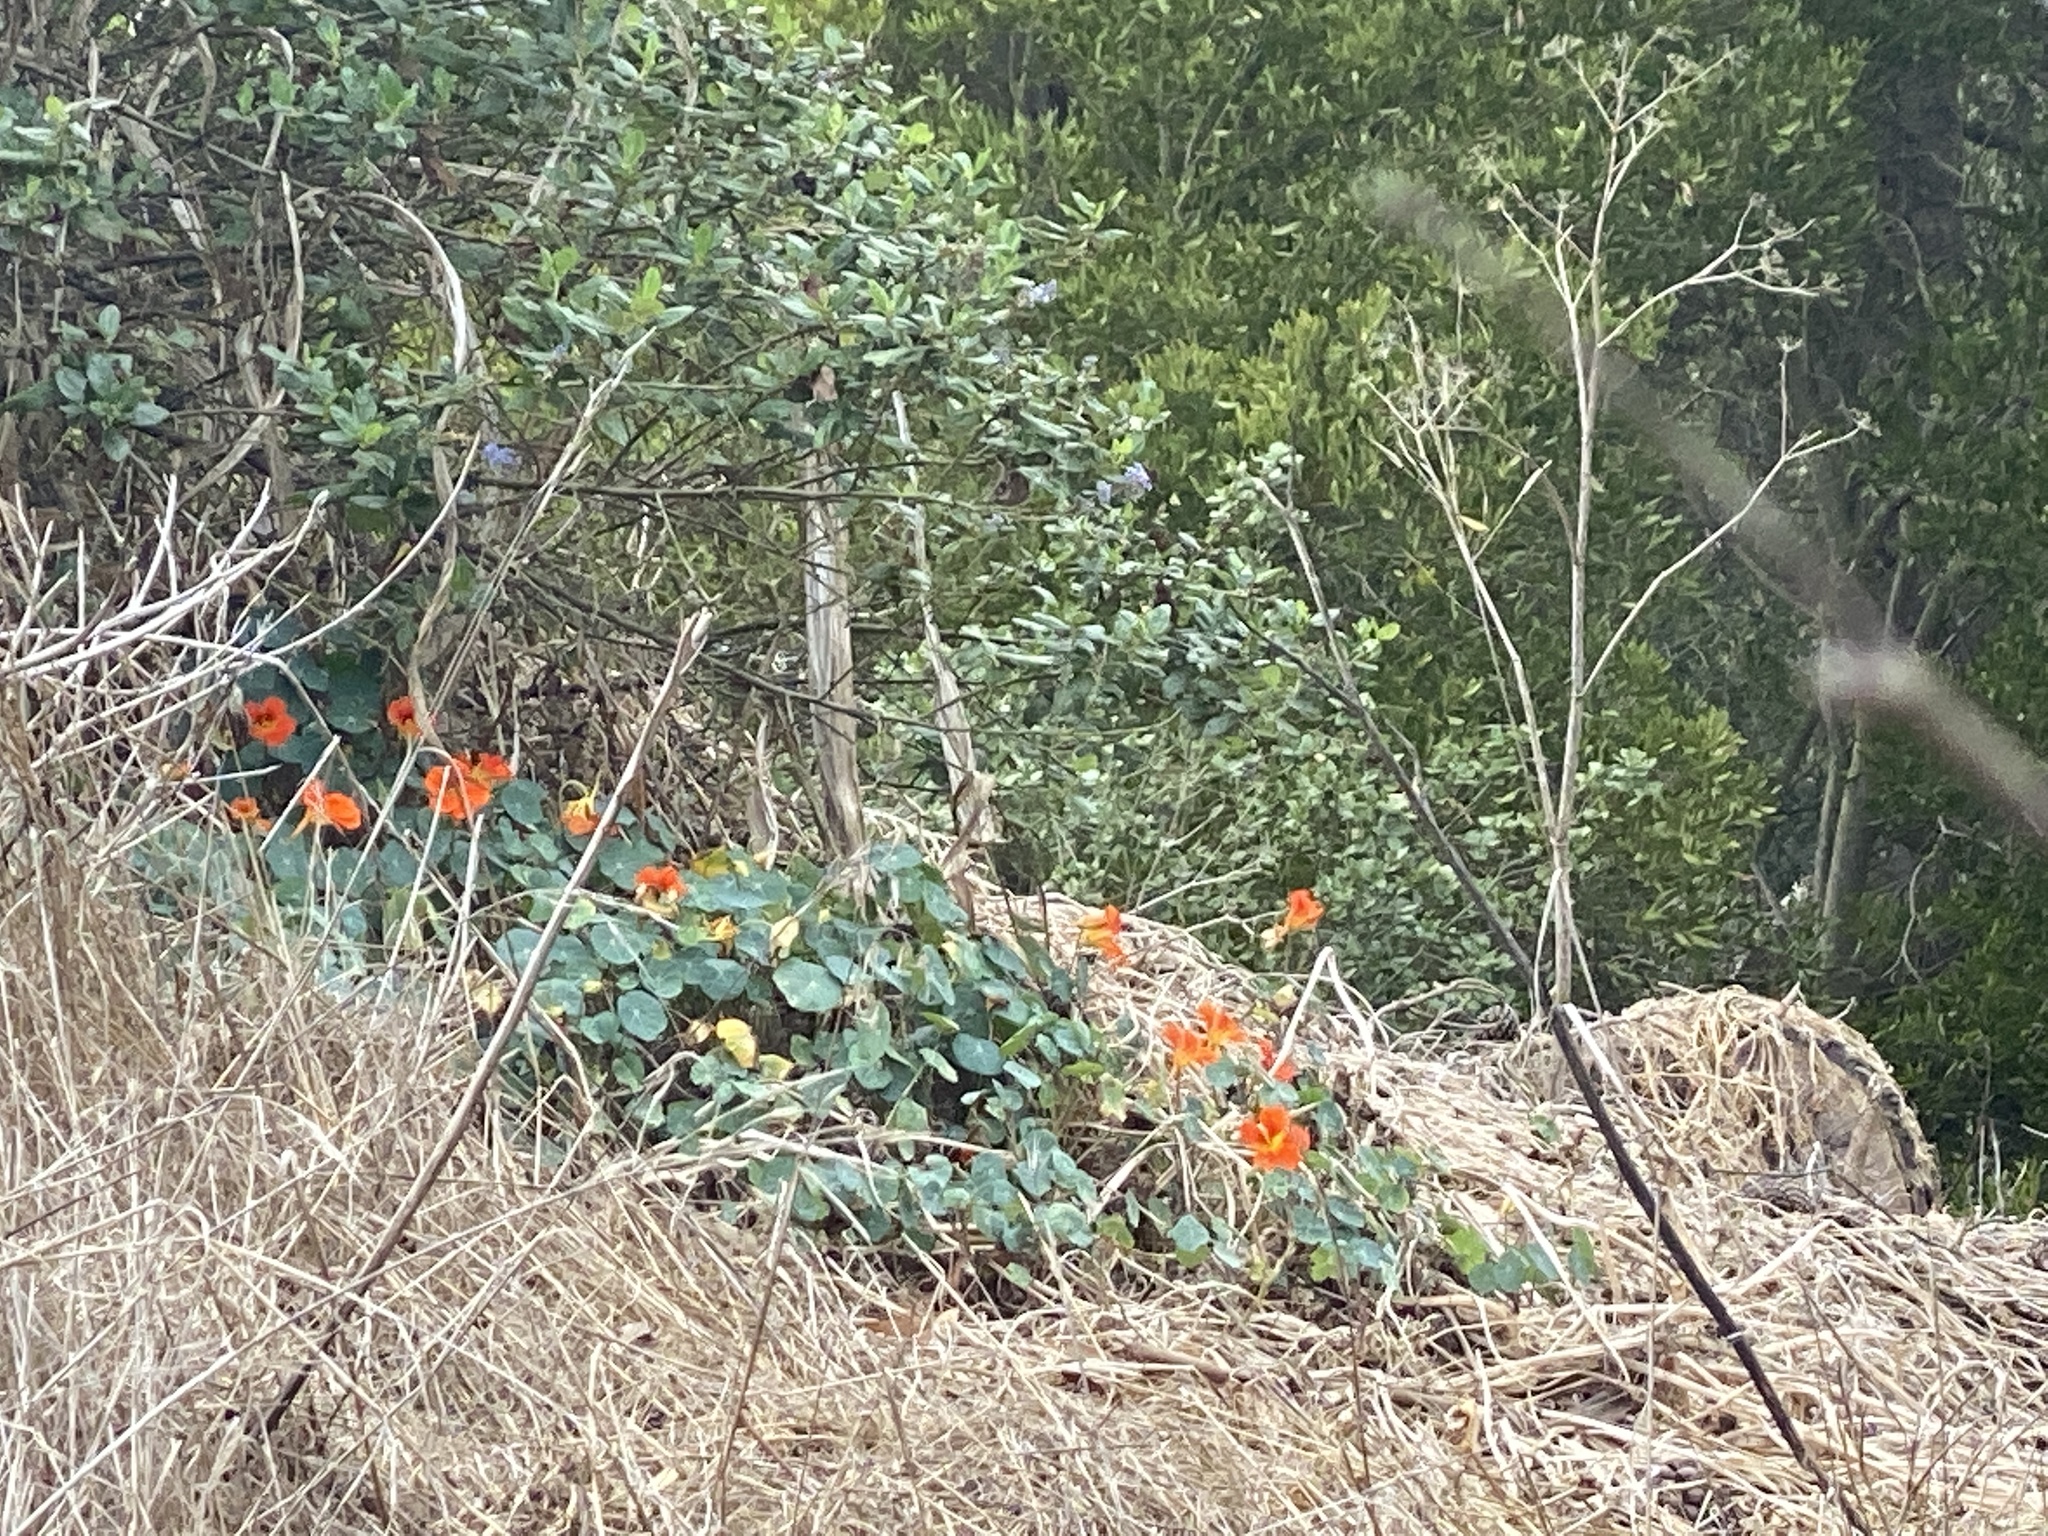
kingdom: Plantae
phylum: Tracheophyta
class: Magnoliopsida
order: Brassicales
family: Tropaeolaceae
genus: Tropaeolum
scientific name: Tropaeolum majus
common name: Nasturtium
